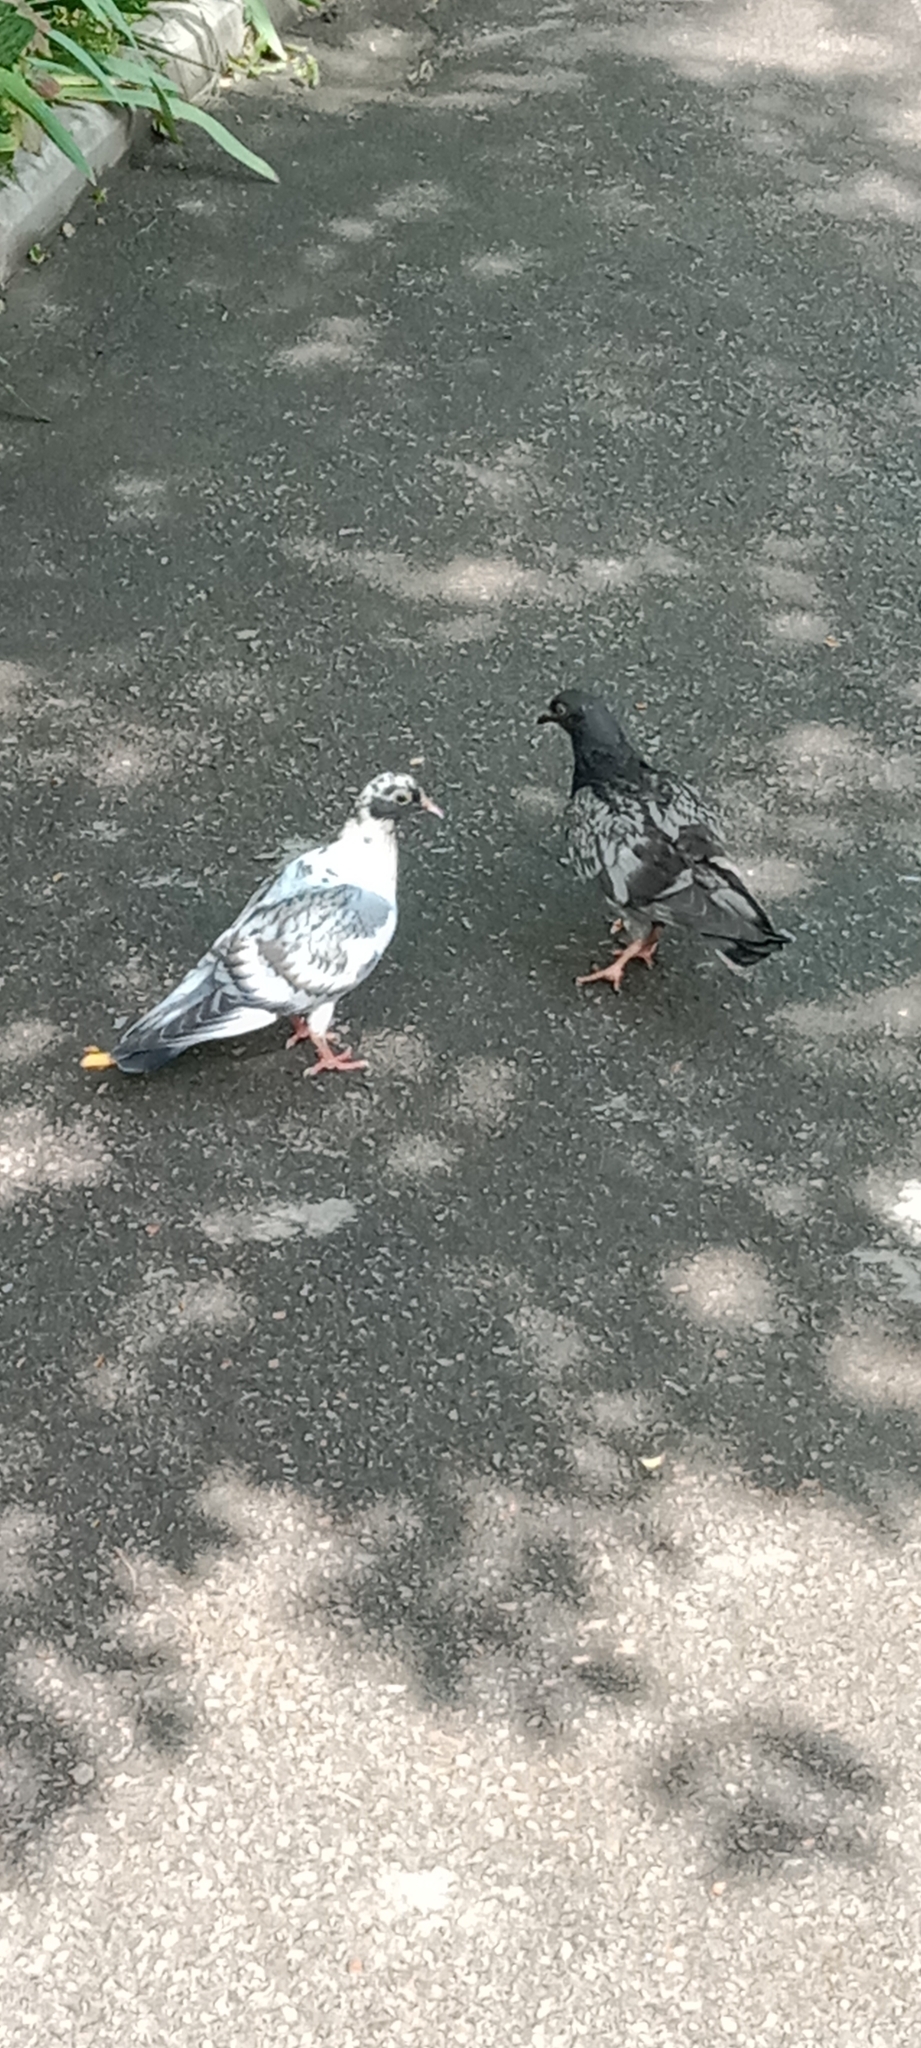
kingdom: Animalia
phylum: Chordata
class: Aves
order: Columbiformes
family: Columbidae
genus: Columba
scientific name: Columba livia
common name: Rock pigeon
